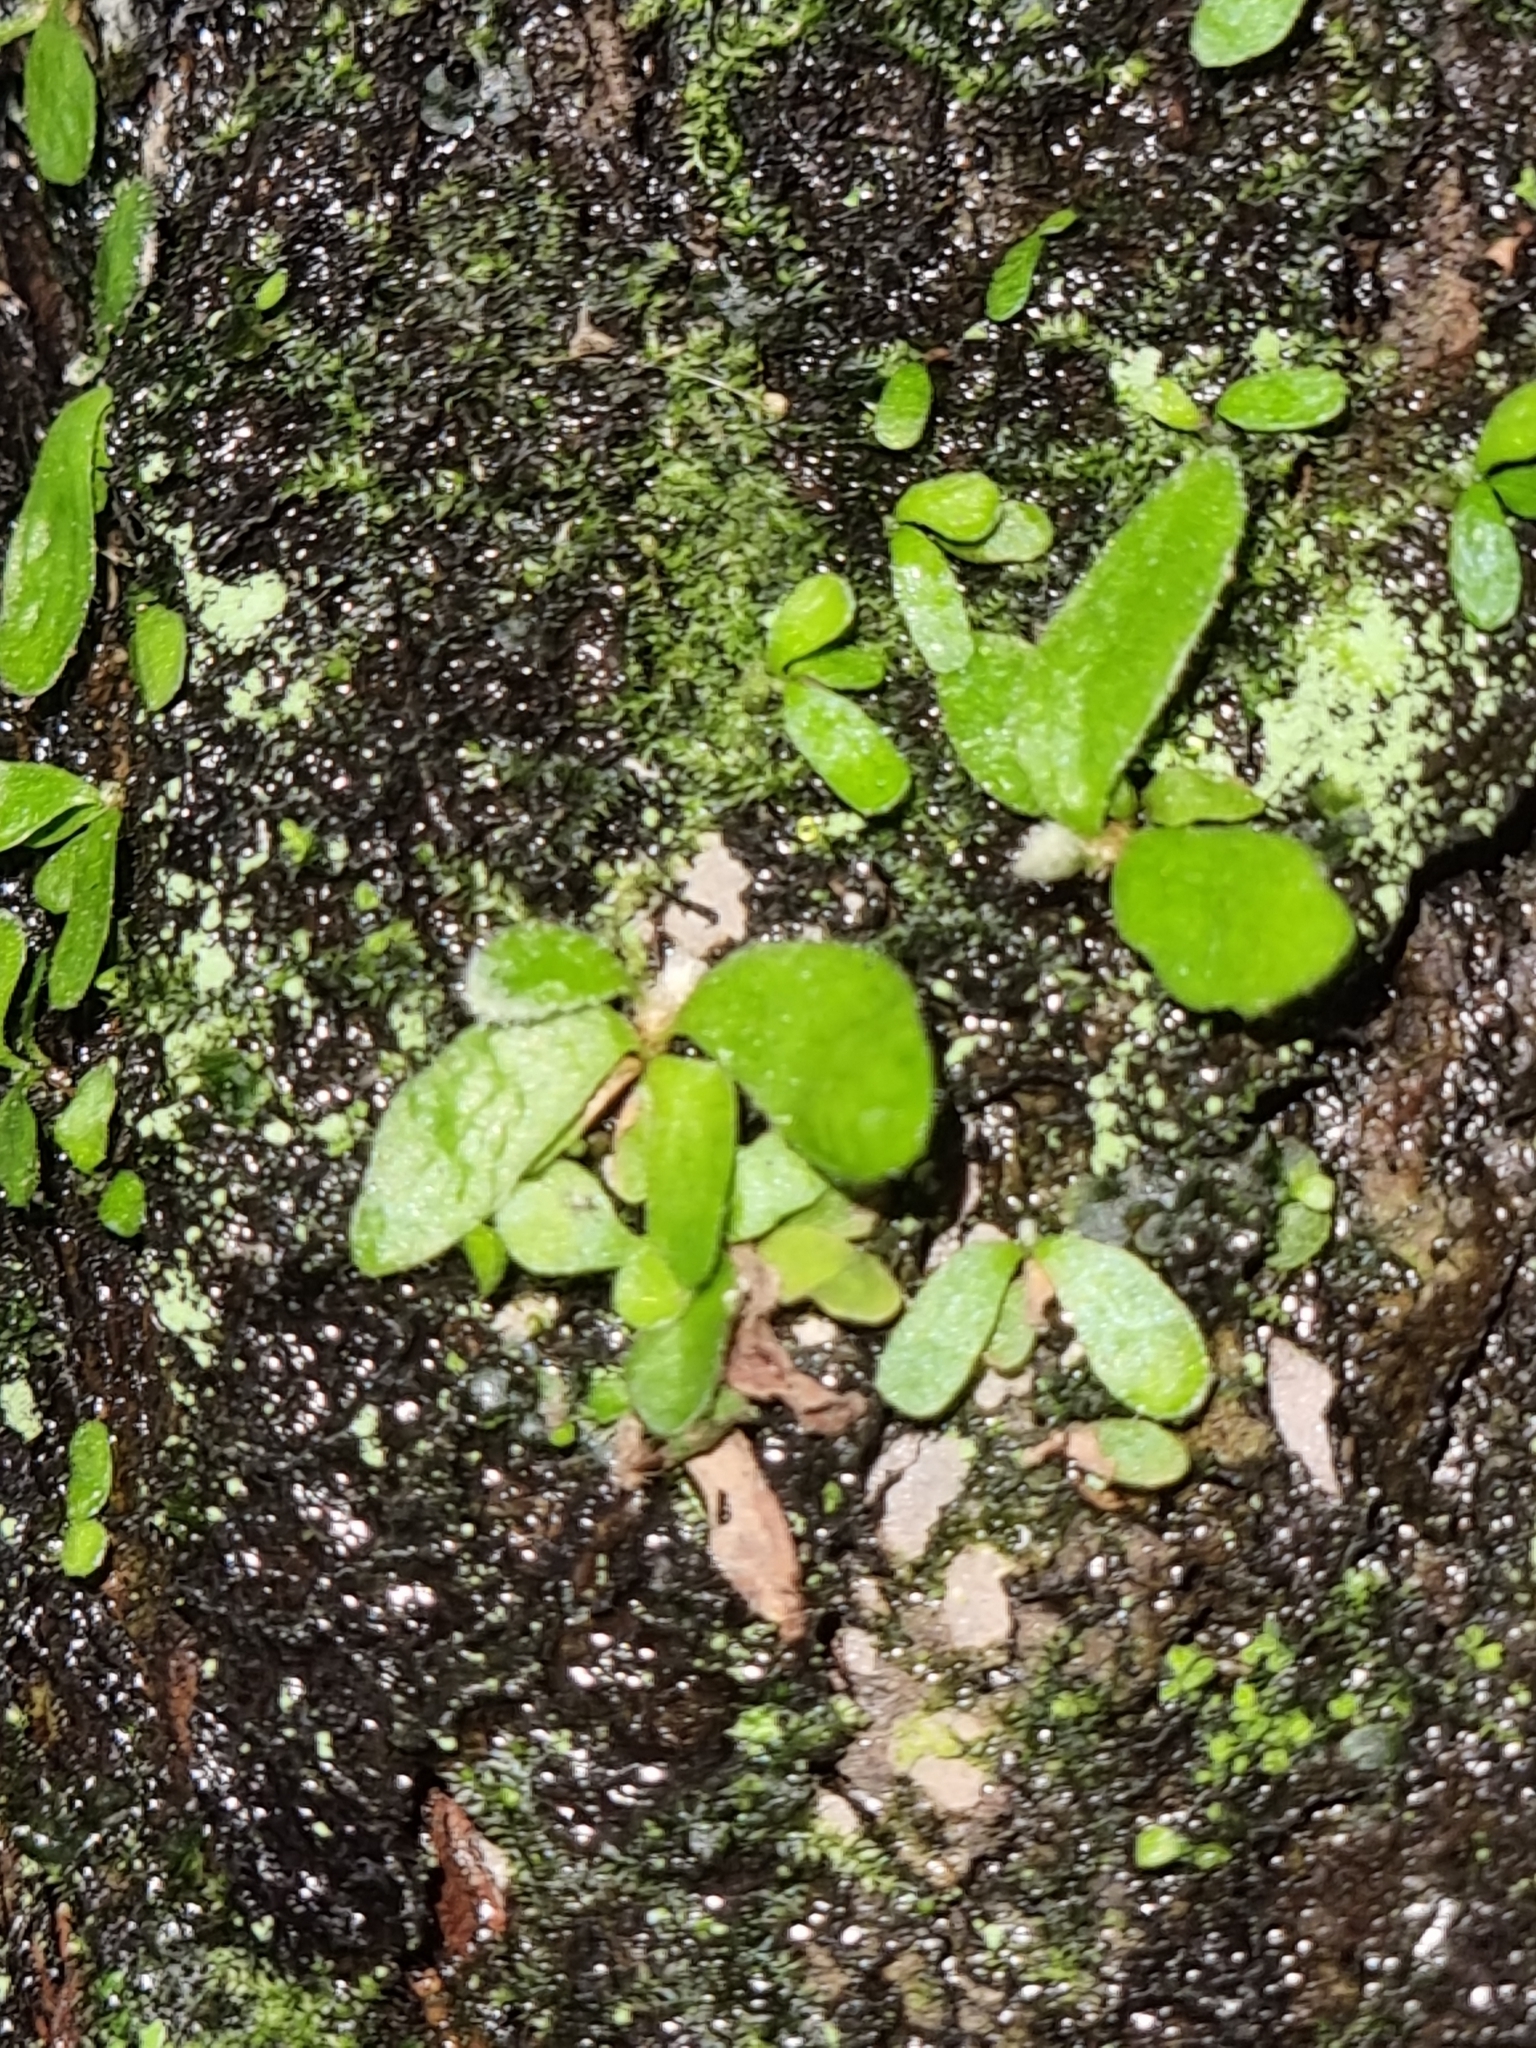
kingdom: Plantae
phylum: Tracheophyta
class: Polypodiopsida
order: Polypodiales
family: Polypodiaceae
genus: Pyrrosia
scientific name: Pyrrosia eleagnifolia
